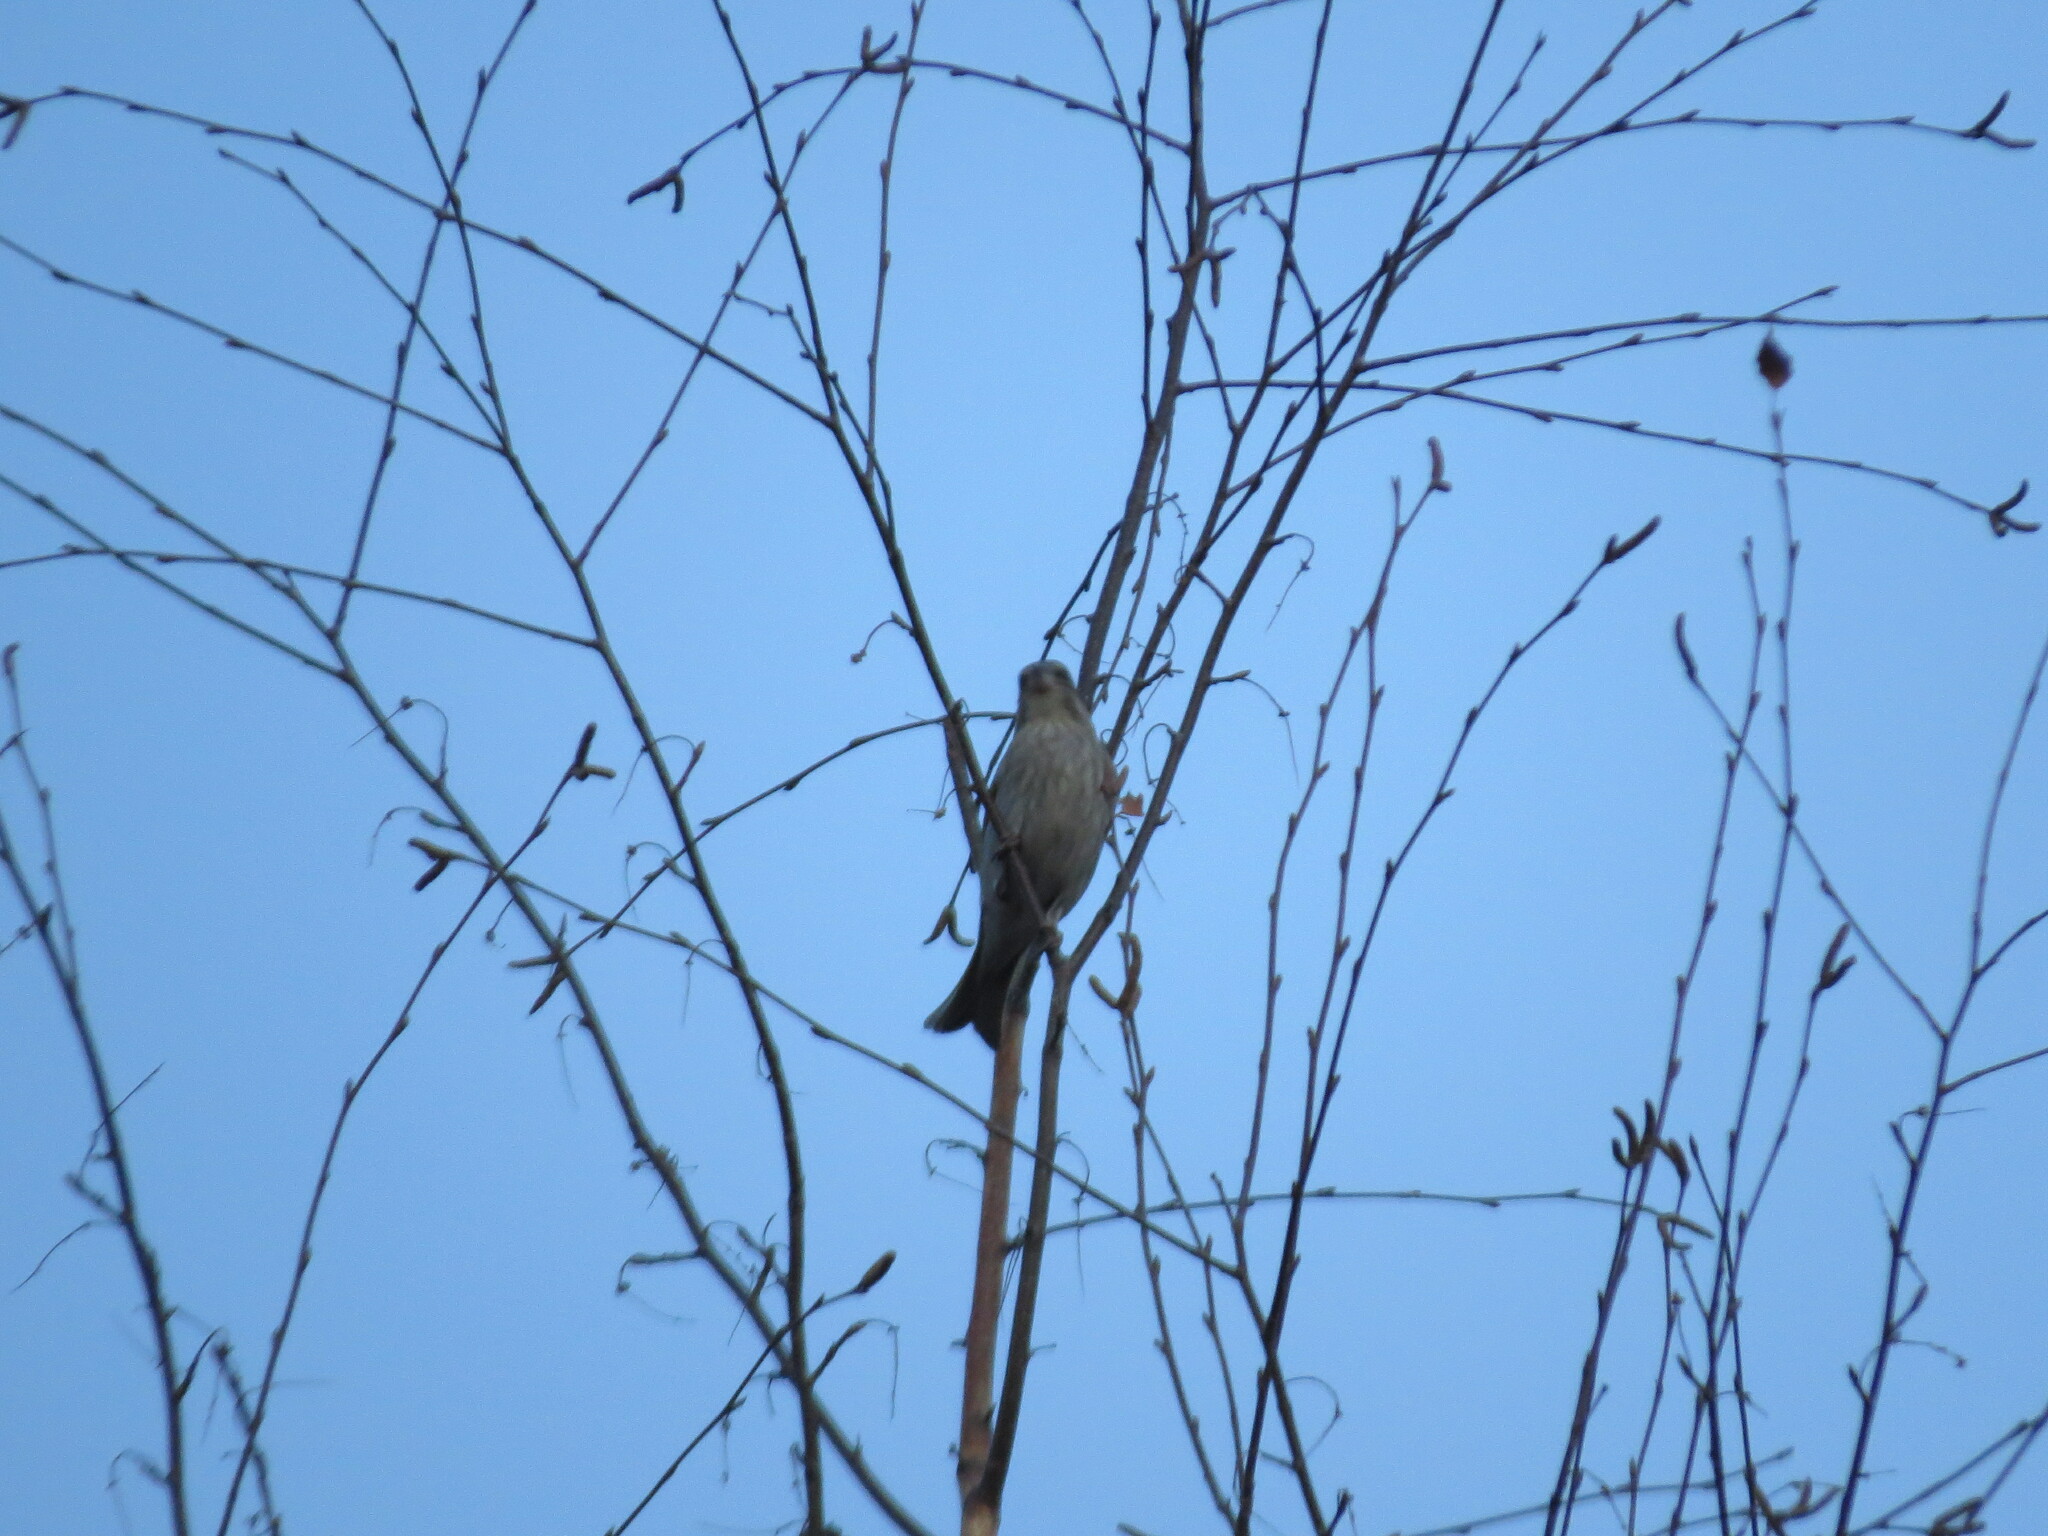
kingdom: Plantae
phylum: Tracheophyta
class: Liliopsida
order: Poales
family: Poaceae
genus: Chloris
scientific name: Chloris chloris
